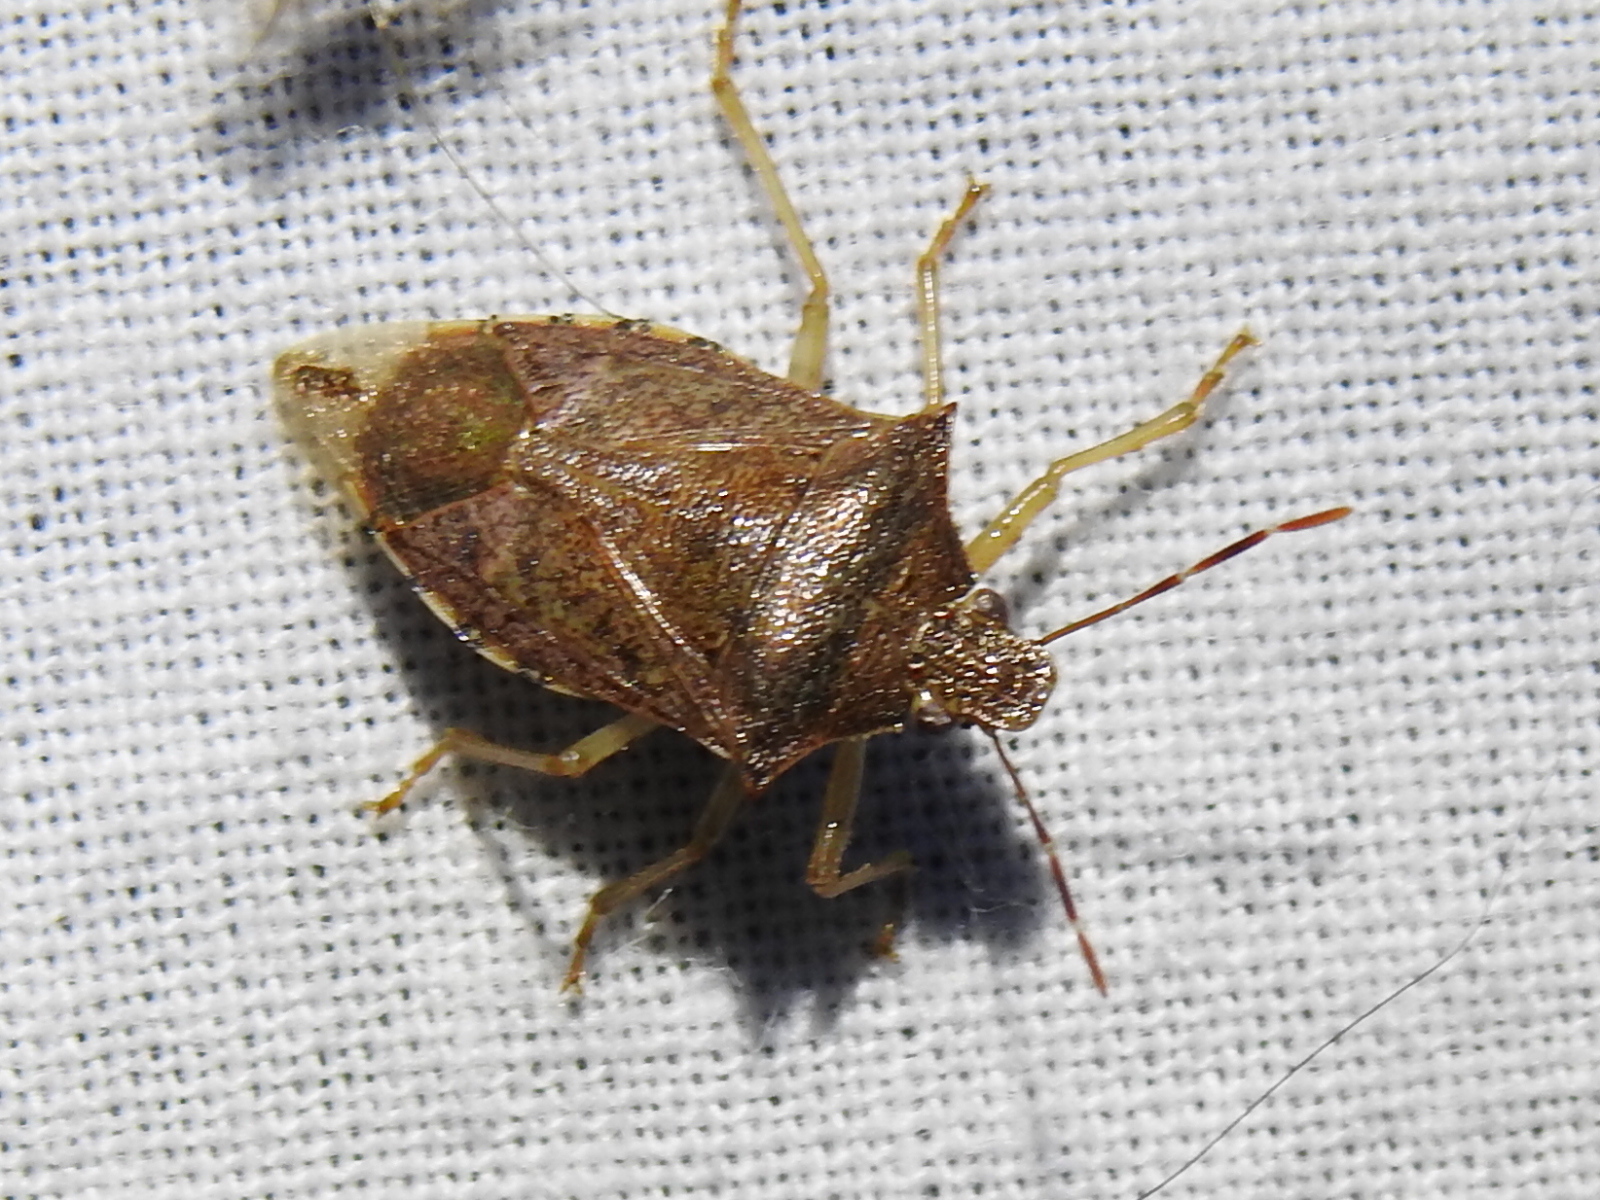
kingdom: Animalia
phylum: Arthropoda
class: Insecta
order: Hemiptera
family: Pentatomidae
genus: Podisus
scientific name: Podisus maculiventris
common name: Spined soldier bug
